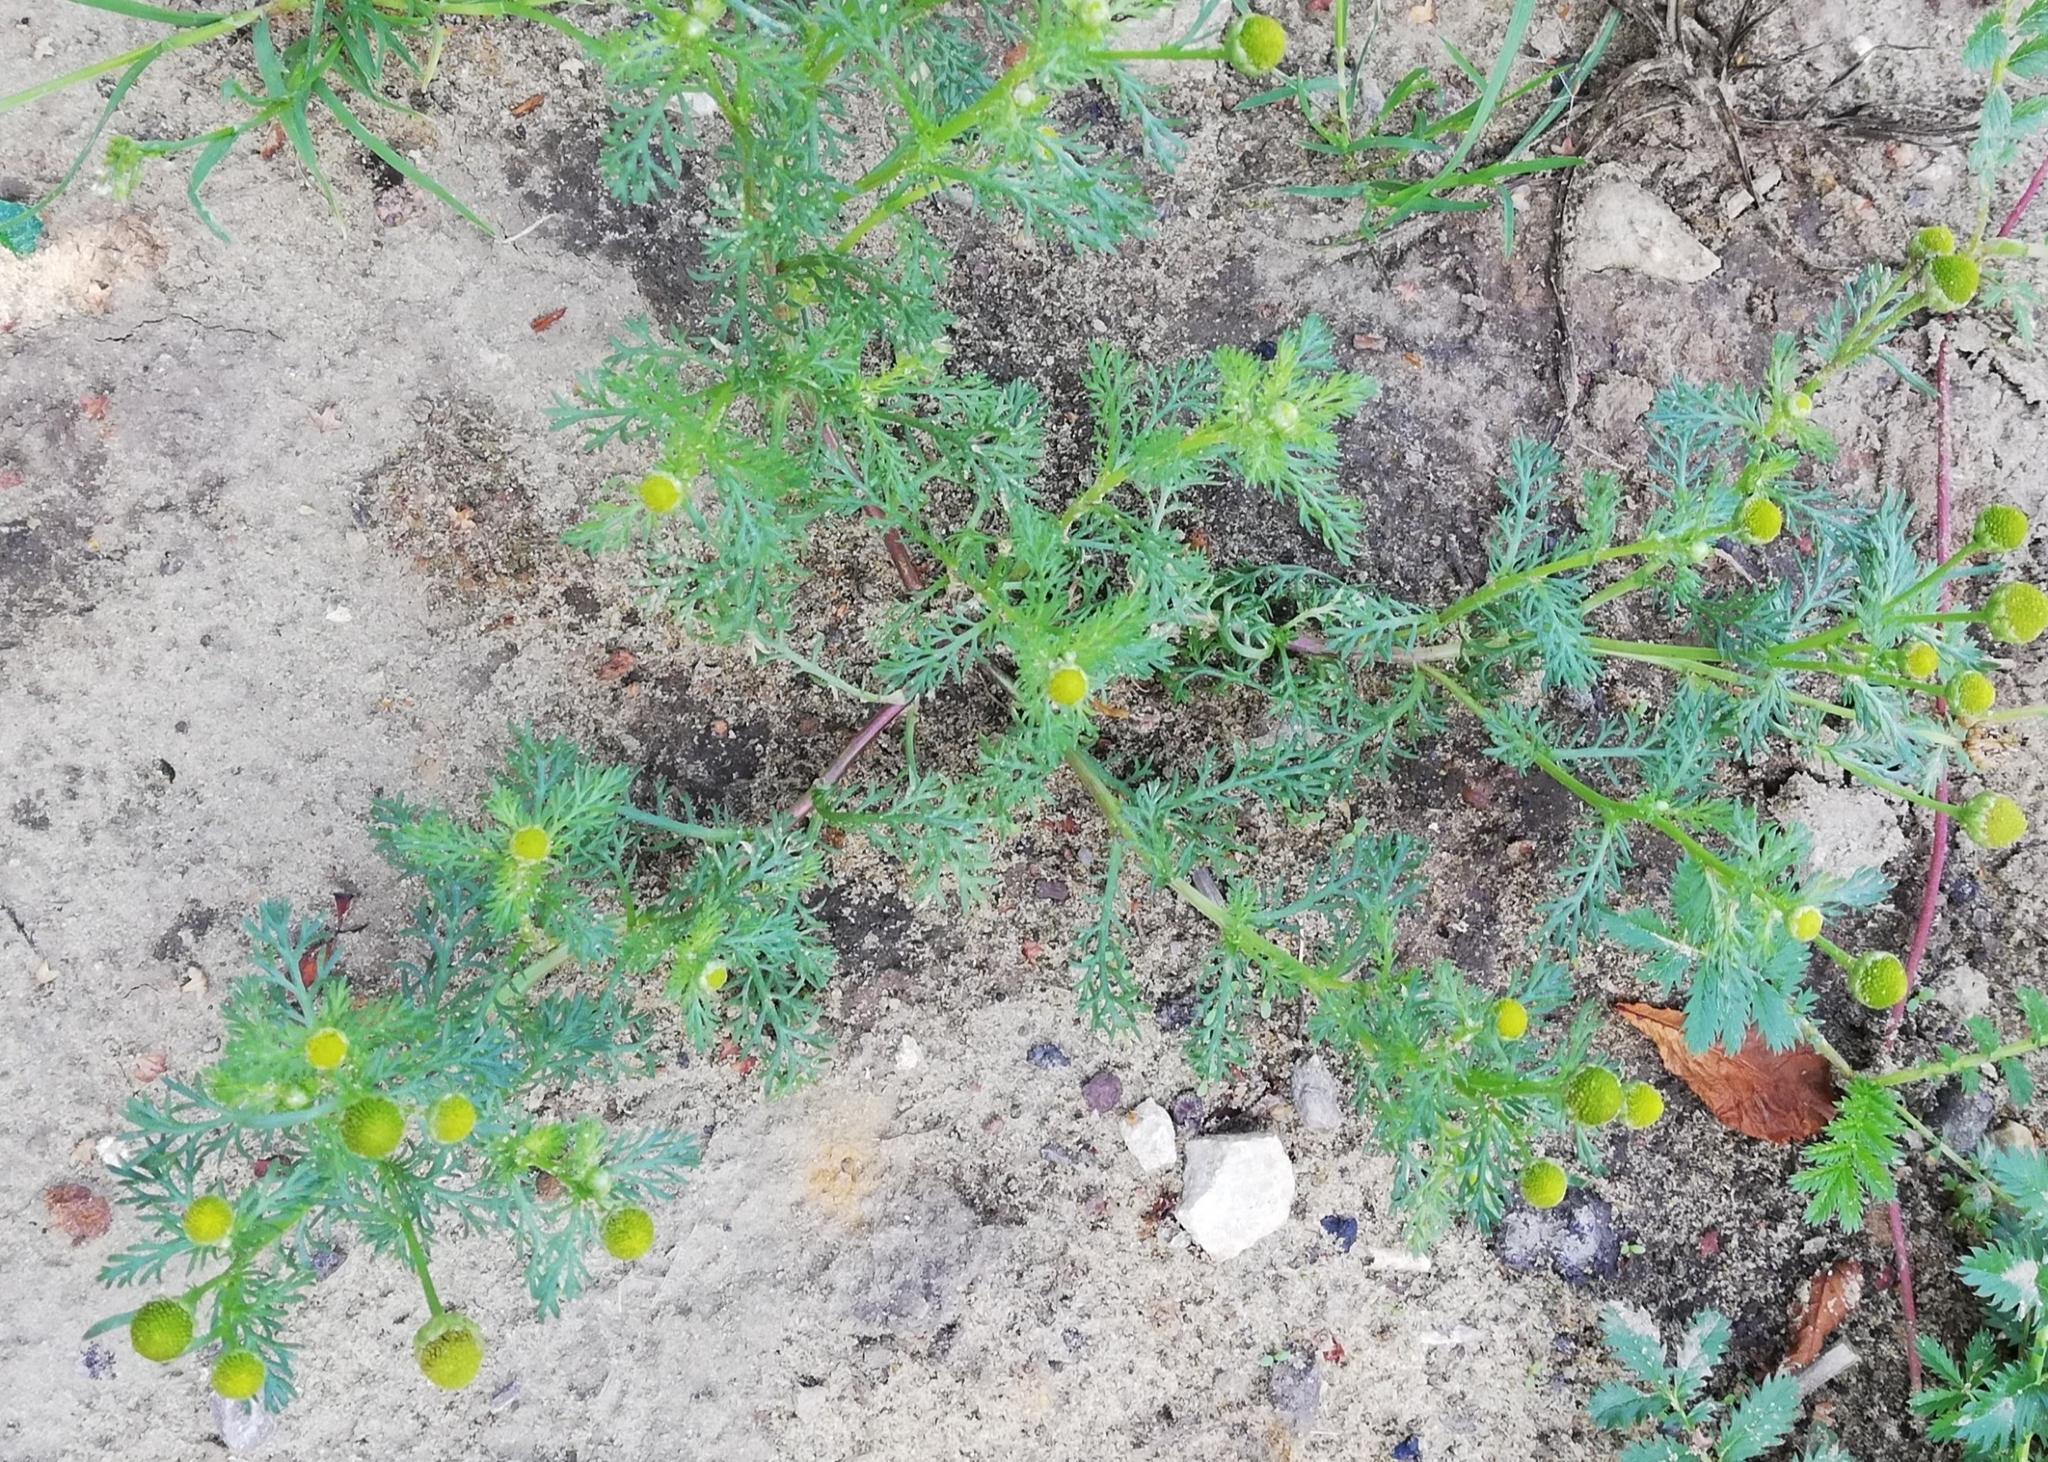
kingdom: Plantae
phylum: Tracheophyta
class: Magnoliopsida
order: Asterales
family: Asteraceae
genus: Matricaria
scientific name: Matricaria discoidea
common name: Disc mayweed
